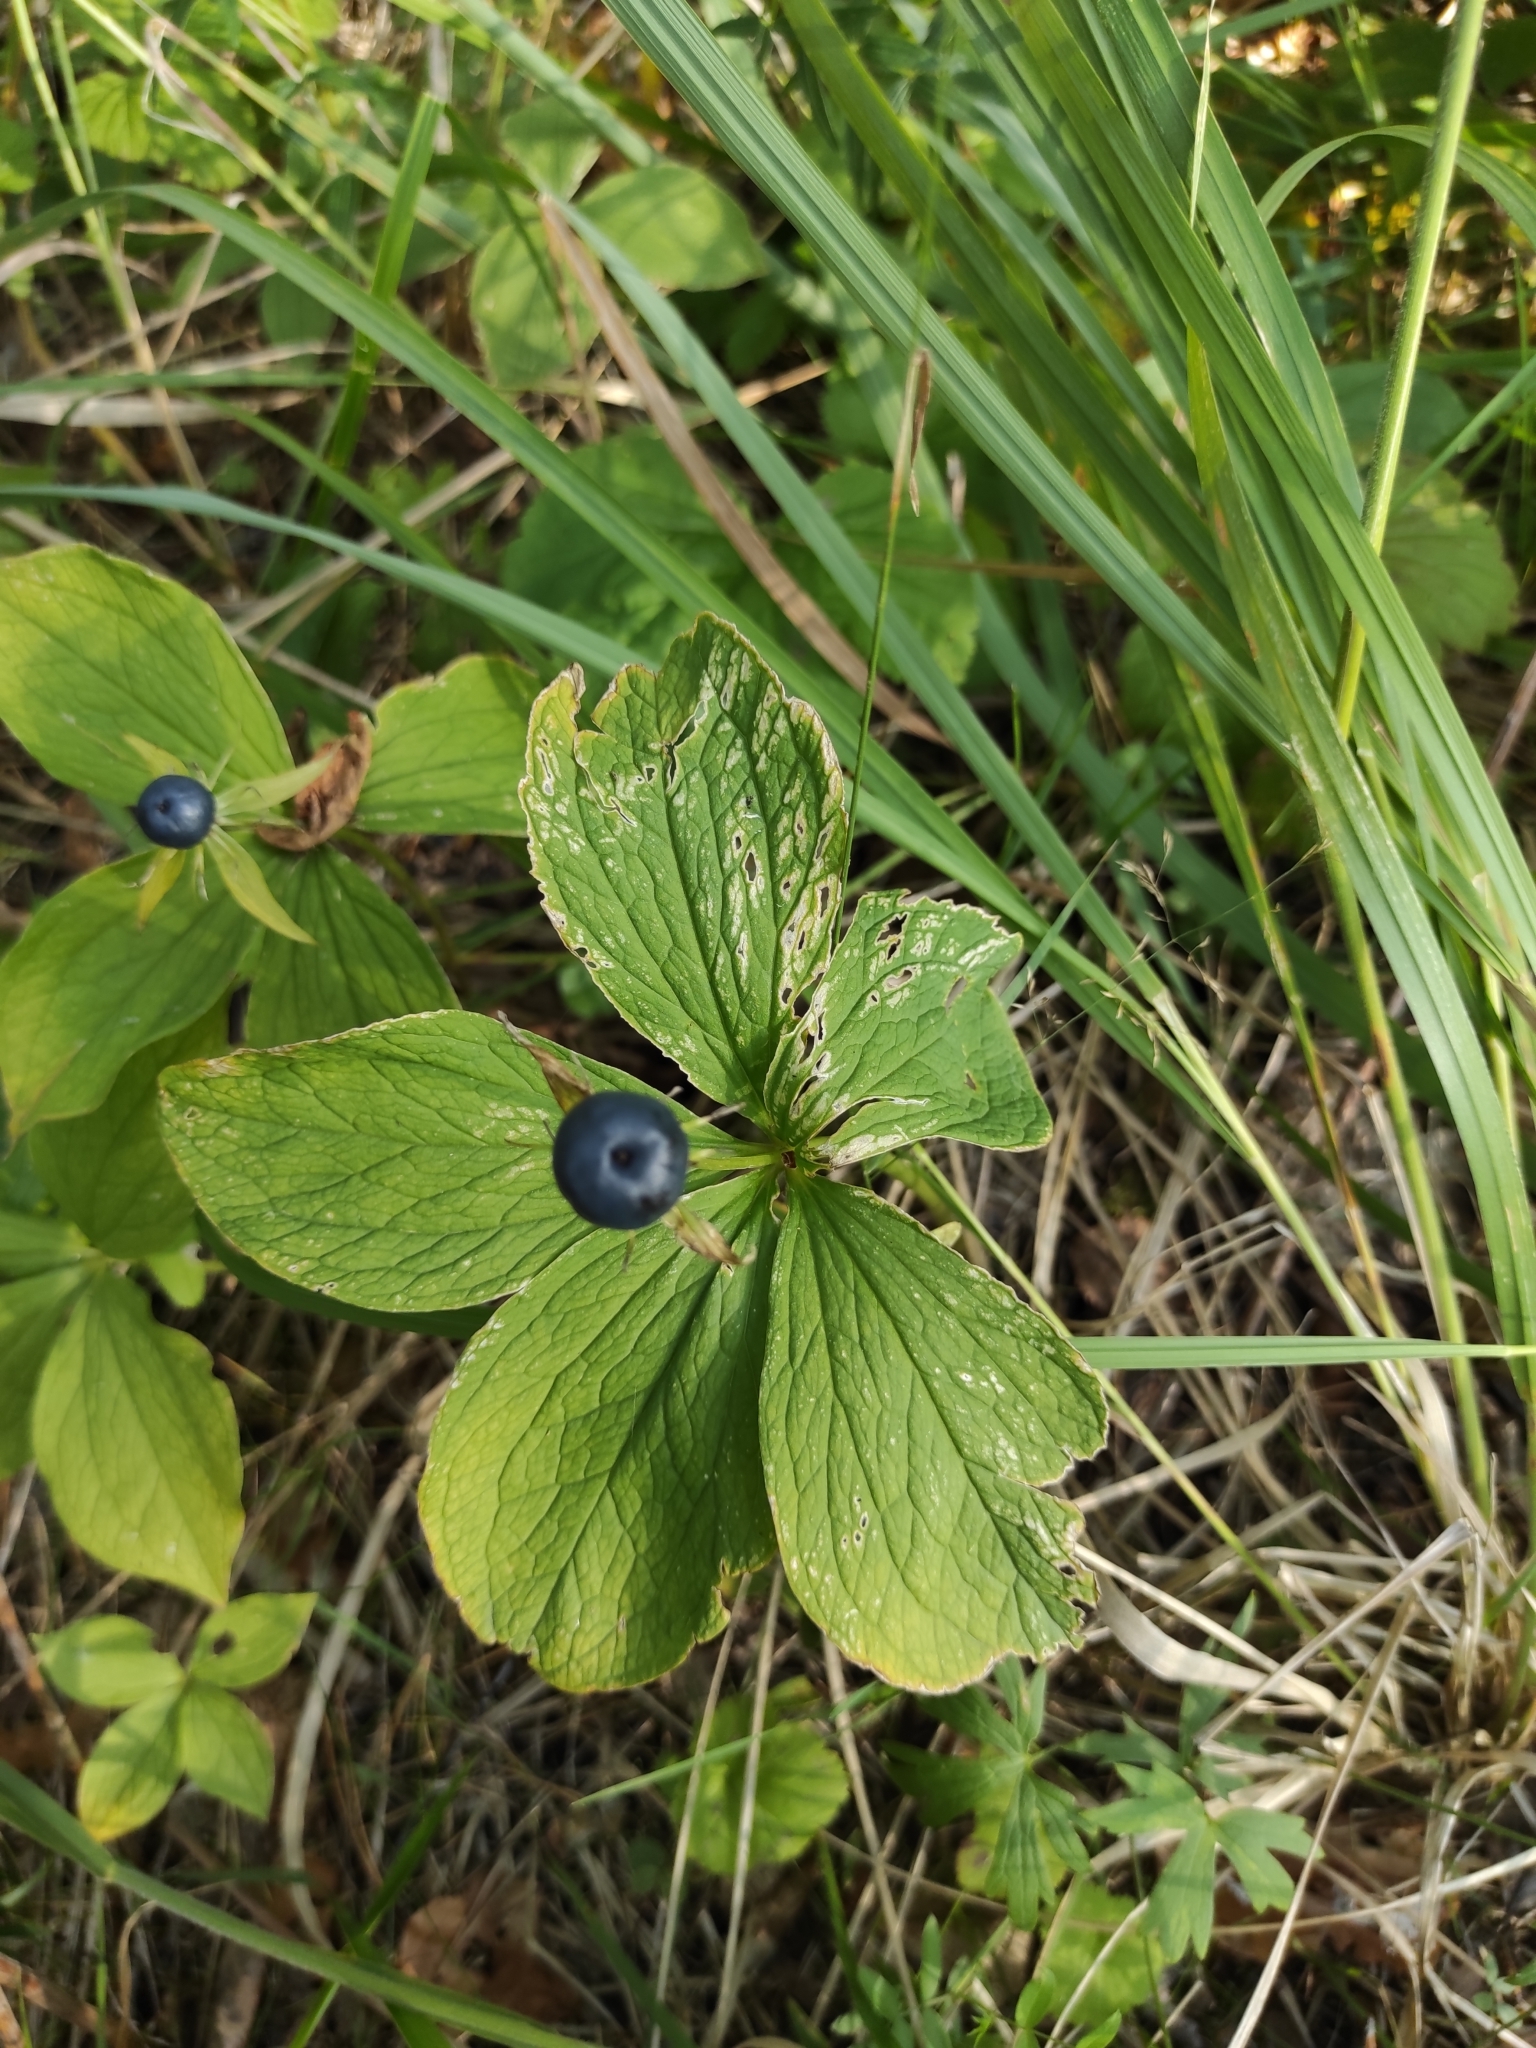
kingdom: Plantae
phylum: Tracheophyta
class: Liliopsida
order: Liliales
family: Melanthiaceae
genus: Paris
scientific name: Paris quadrifolia
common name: Herb-paris
